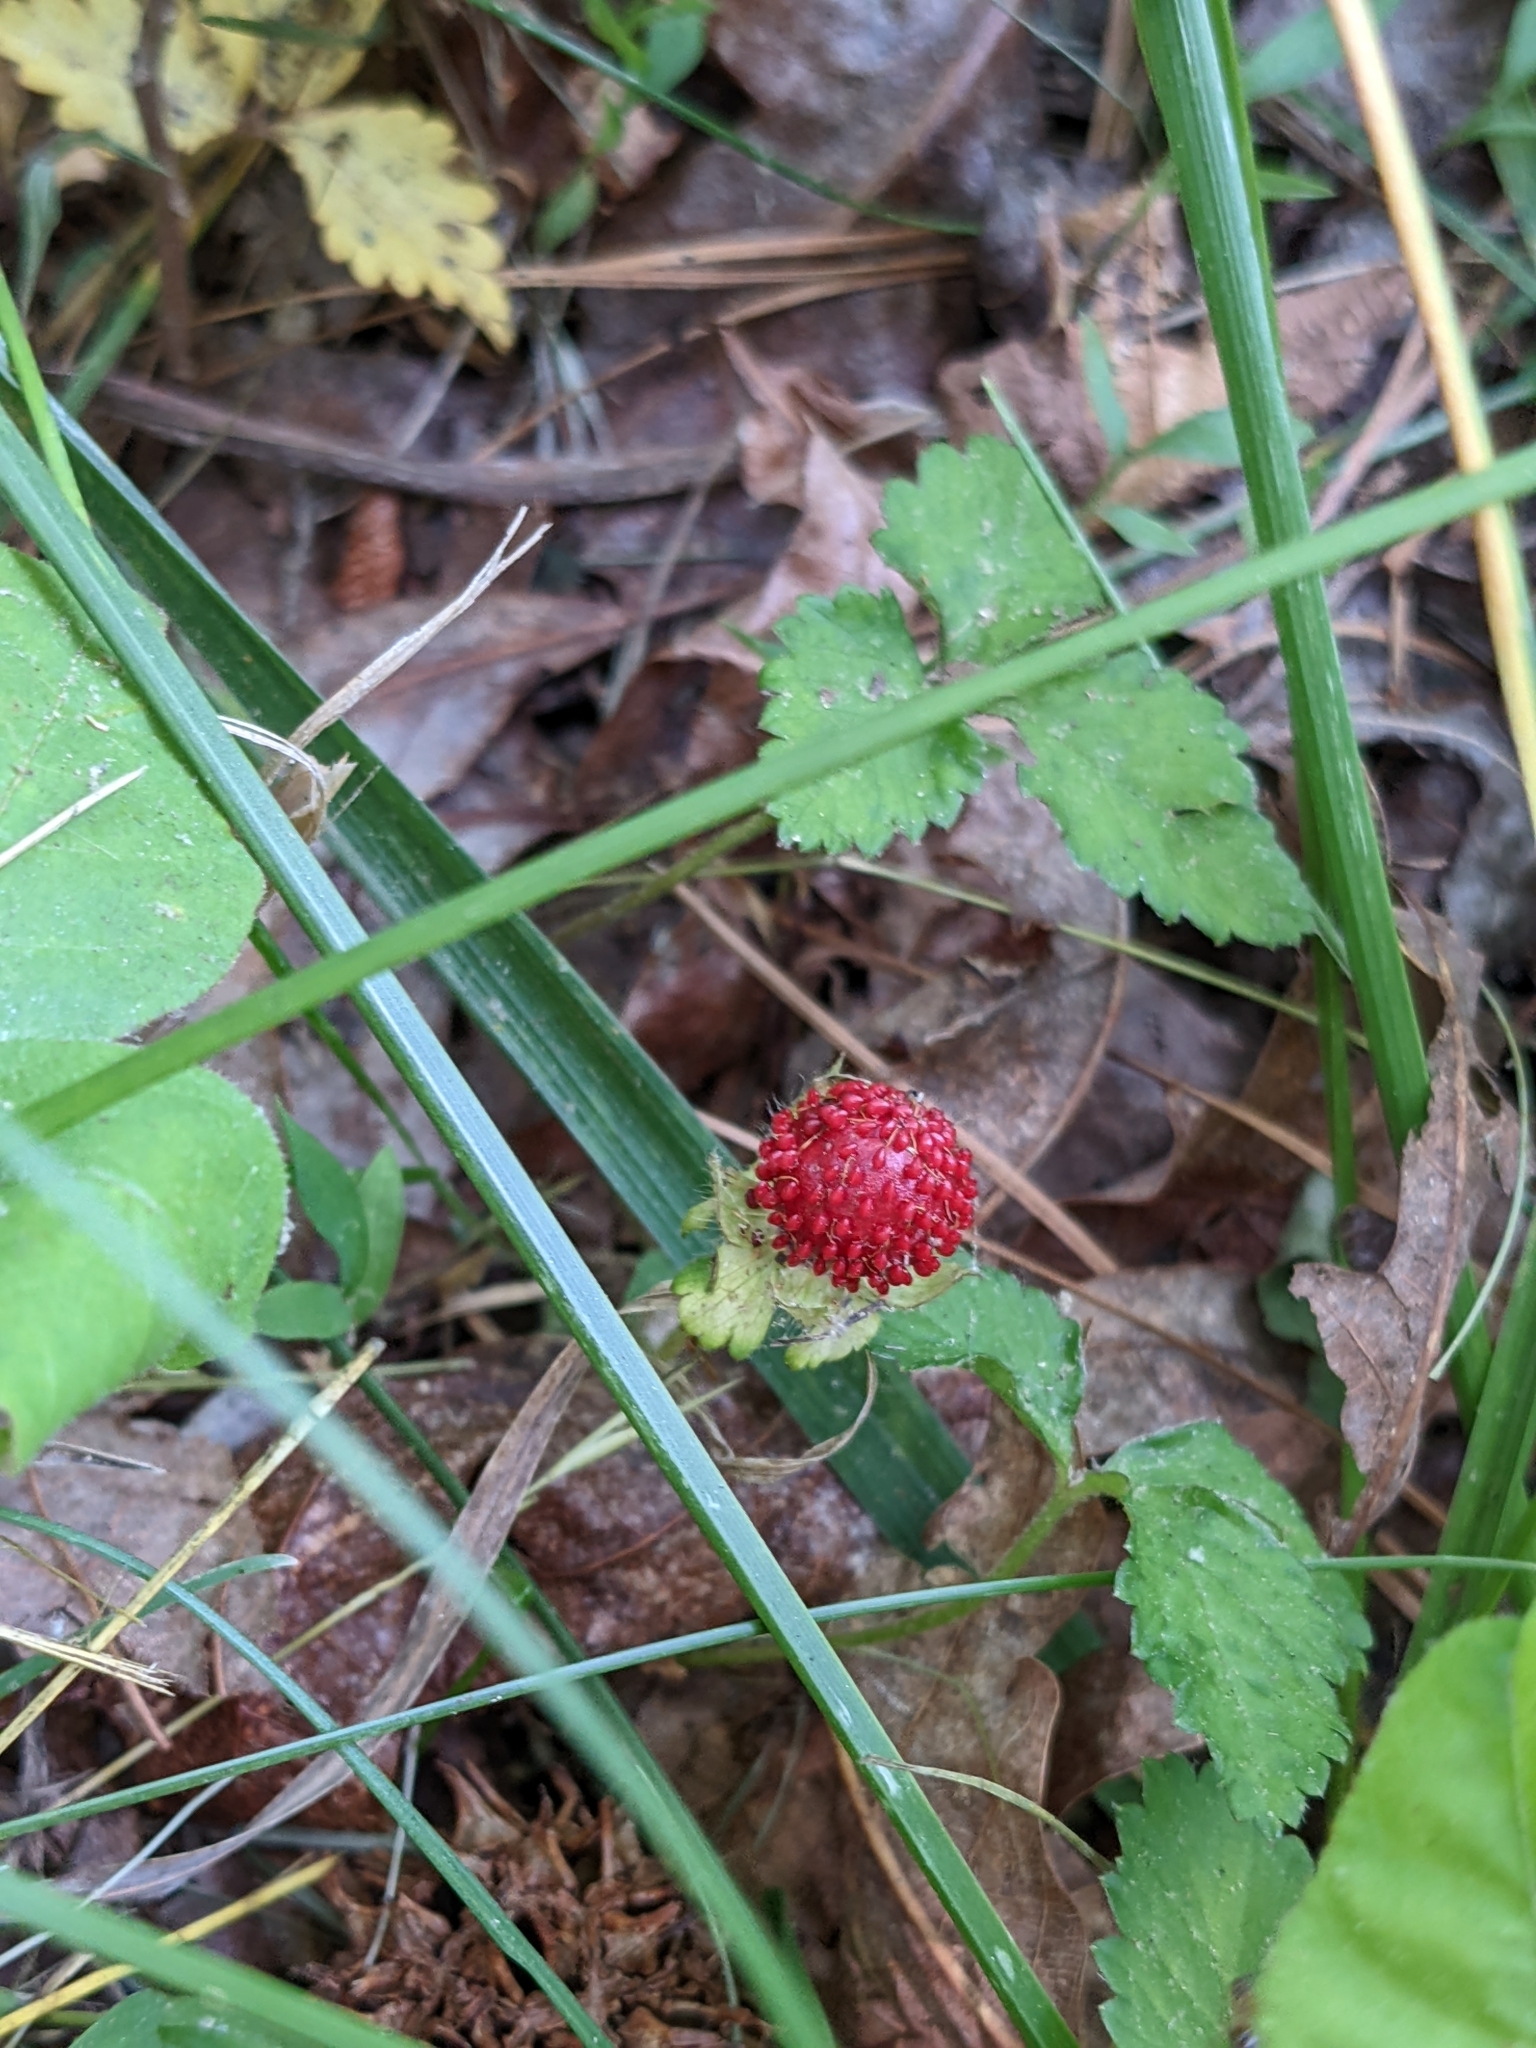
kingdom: Plantae
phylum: Tracheophyta
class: Magnoliopsida
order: Rosales
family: Rosaceae
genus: Potentilla
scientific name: Potentilla indica
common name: Yellow-flowered strawberry
